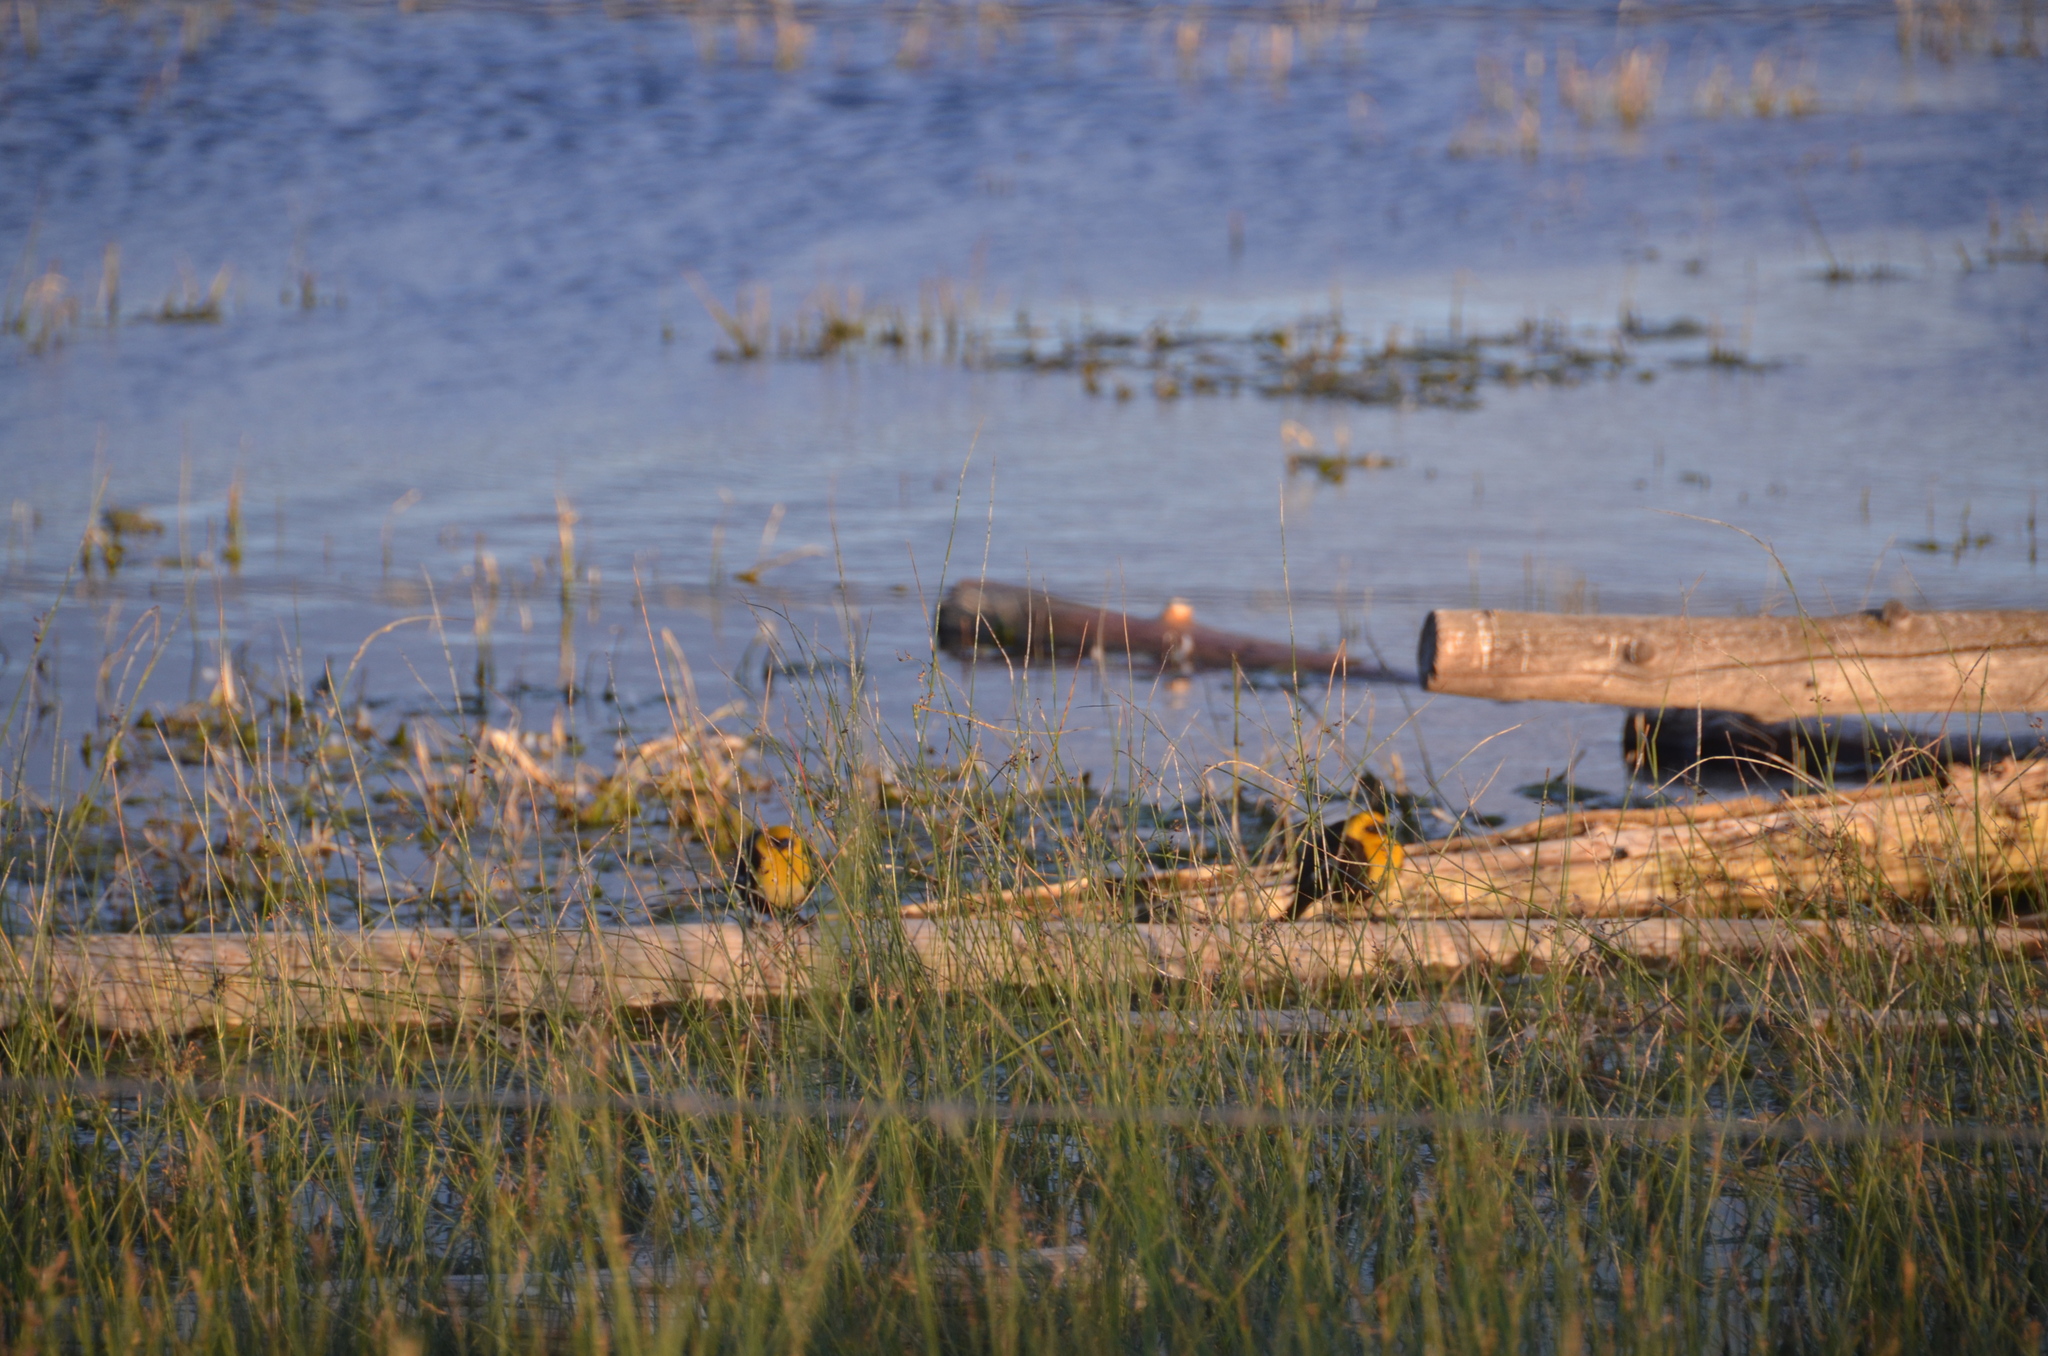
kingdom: Animalia
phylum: Chordata
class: Aves
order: Passeriformes
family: Icteridae
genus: Xanthocephalus
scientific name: Xanthocephalus xanthocephalus
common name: Yellow-headed blackbird
